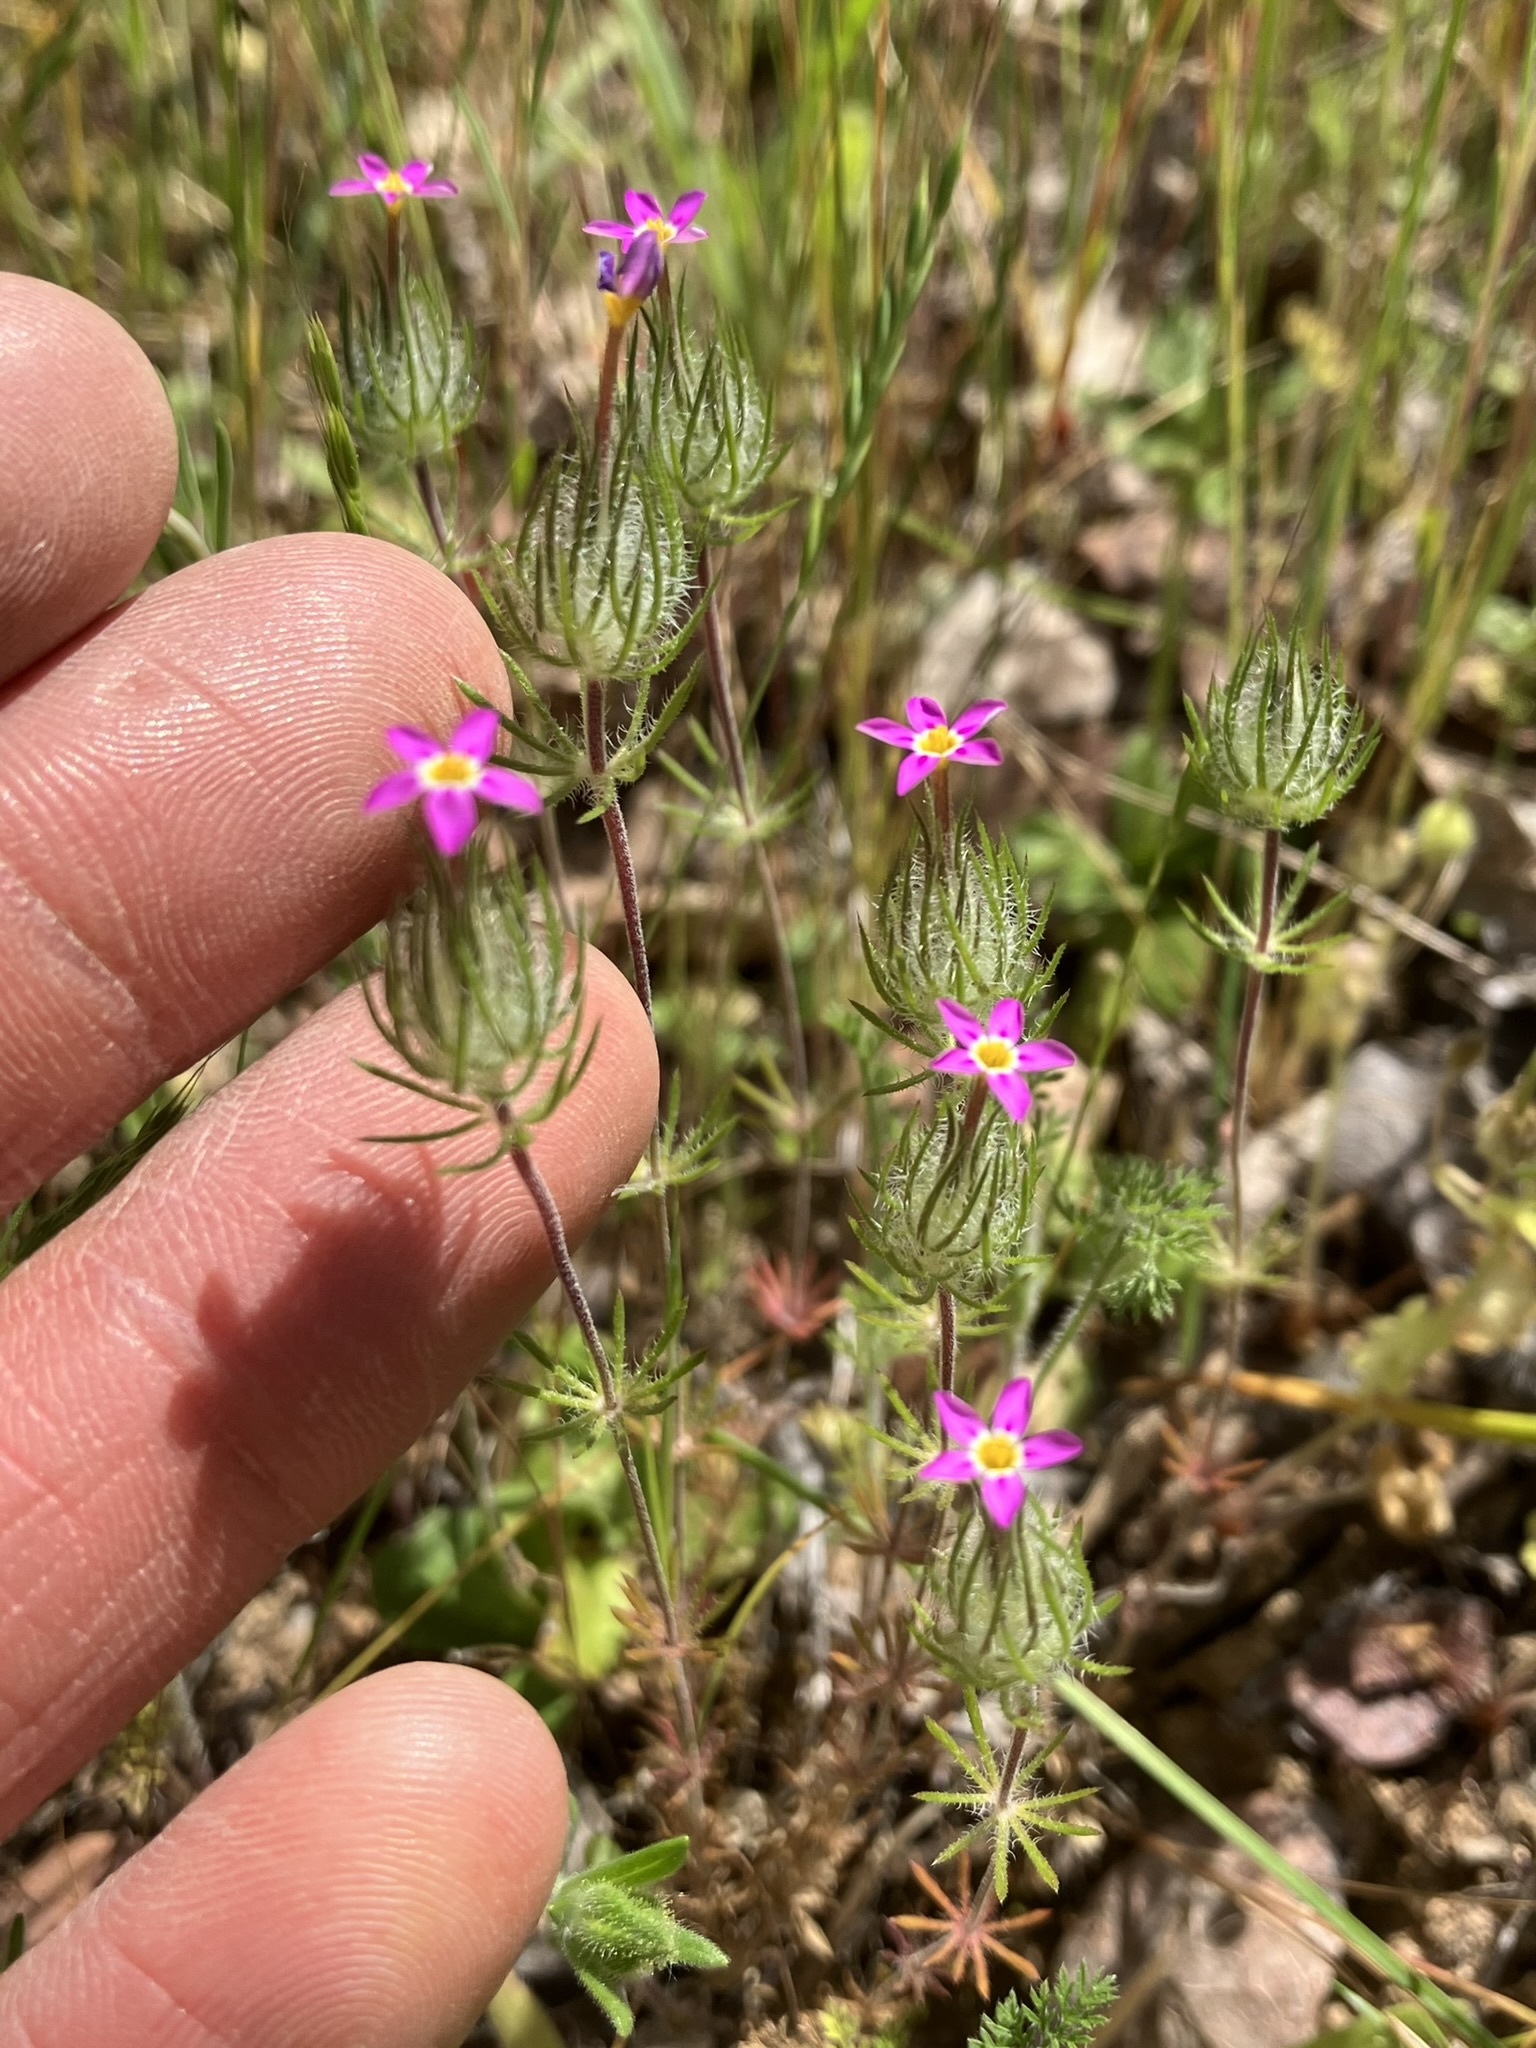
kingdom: Plantae
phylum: Tracheophyta
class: Magnoliopsida
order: Ericales
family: Polemoniaceae
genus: Leptosiphon
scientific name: Leptosiphon ciliatus
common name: Whiskerbrush
